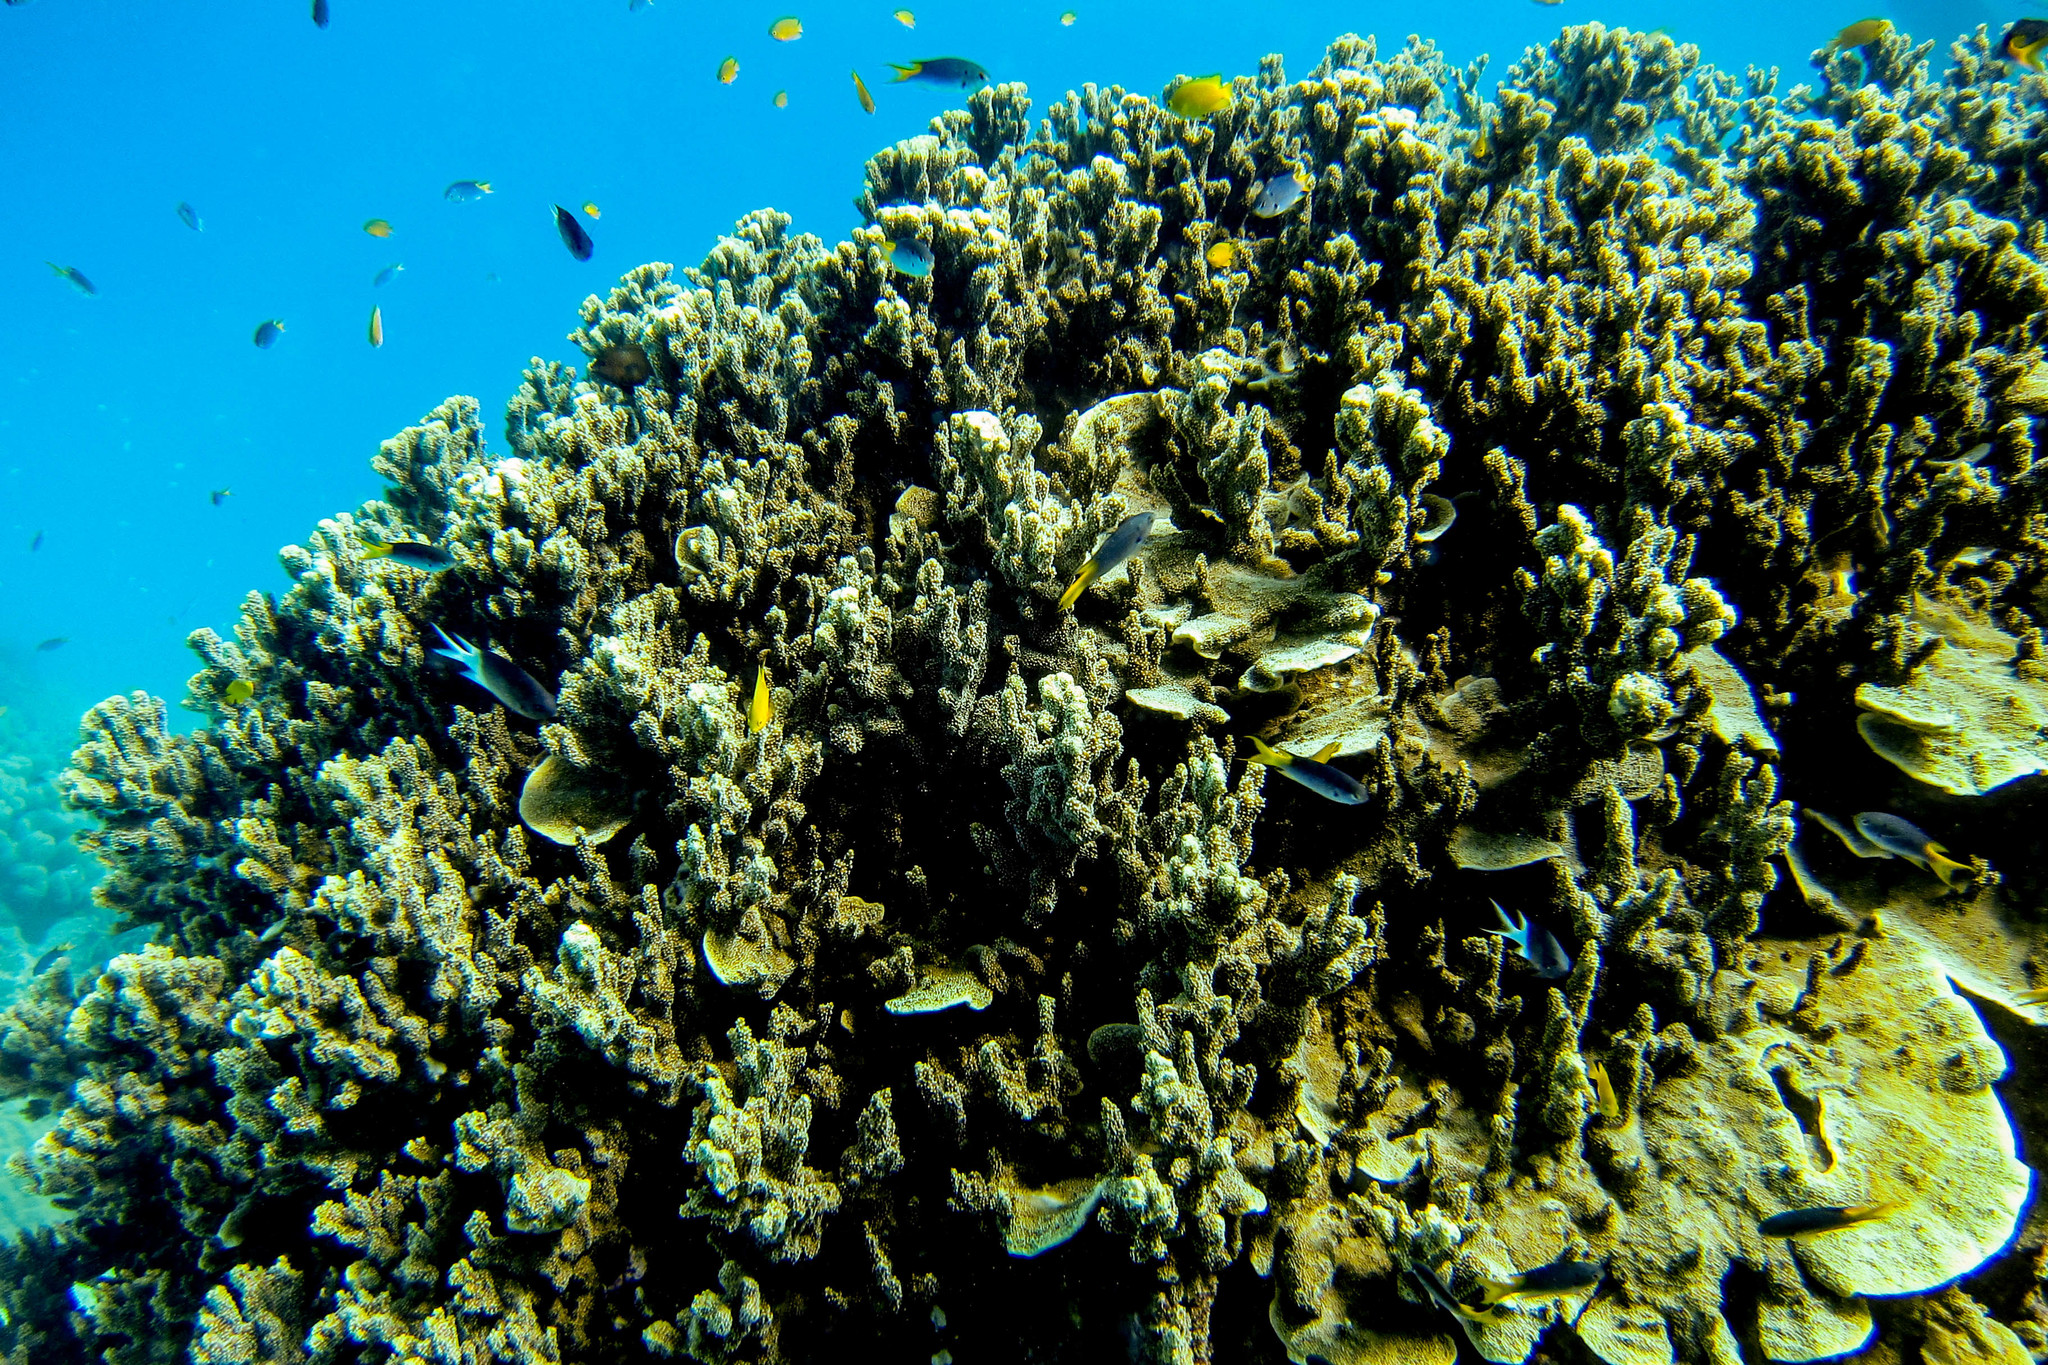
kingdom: Animalia
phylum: Chordata
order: Perciformes
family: Pomacentridae
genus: Acanthochromis
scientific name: Acanthochromis polyacanthus
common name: Spiny chromis
